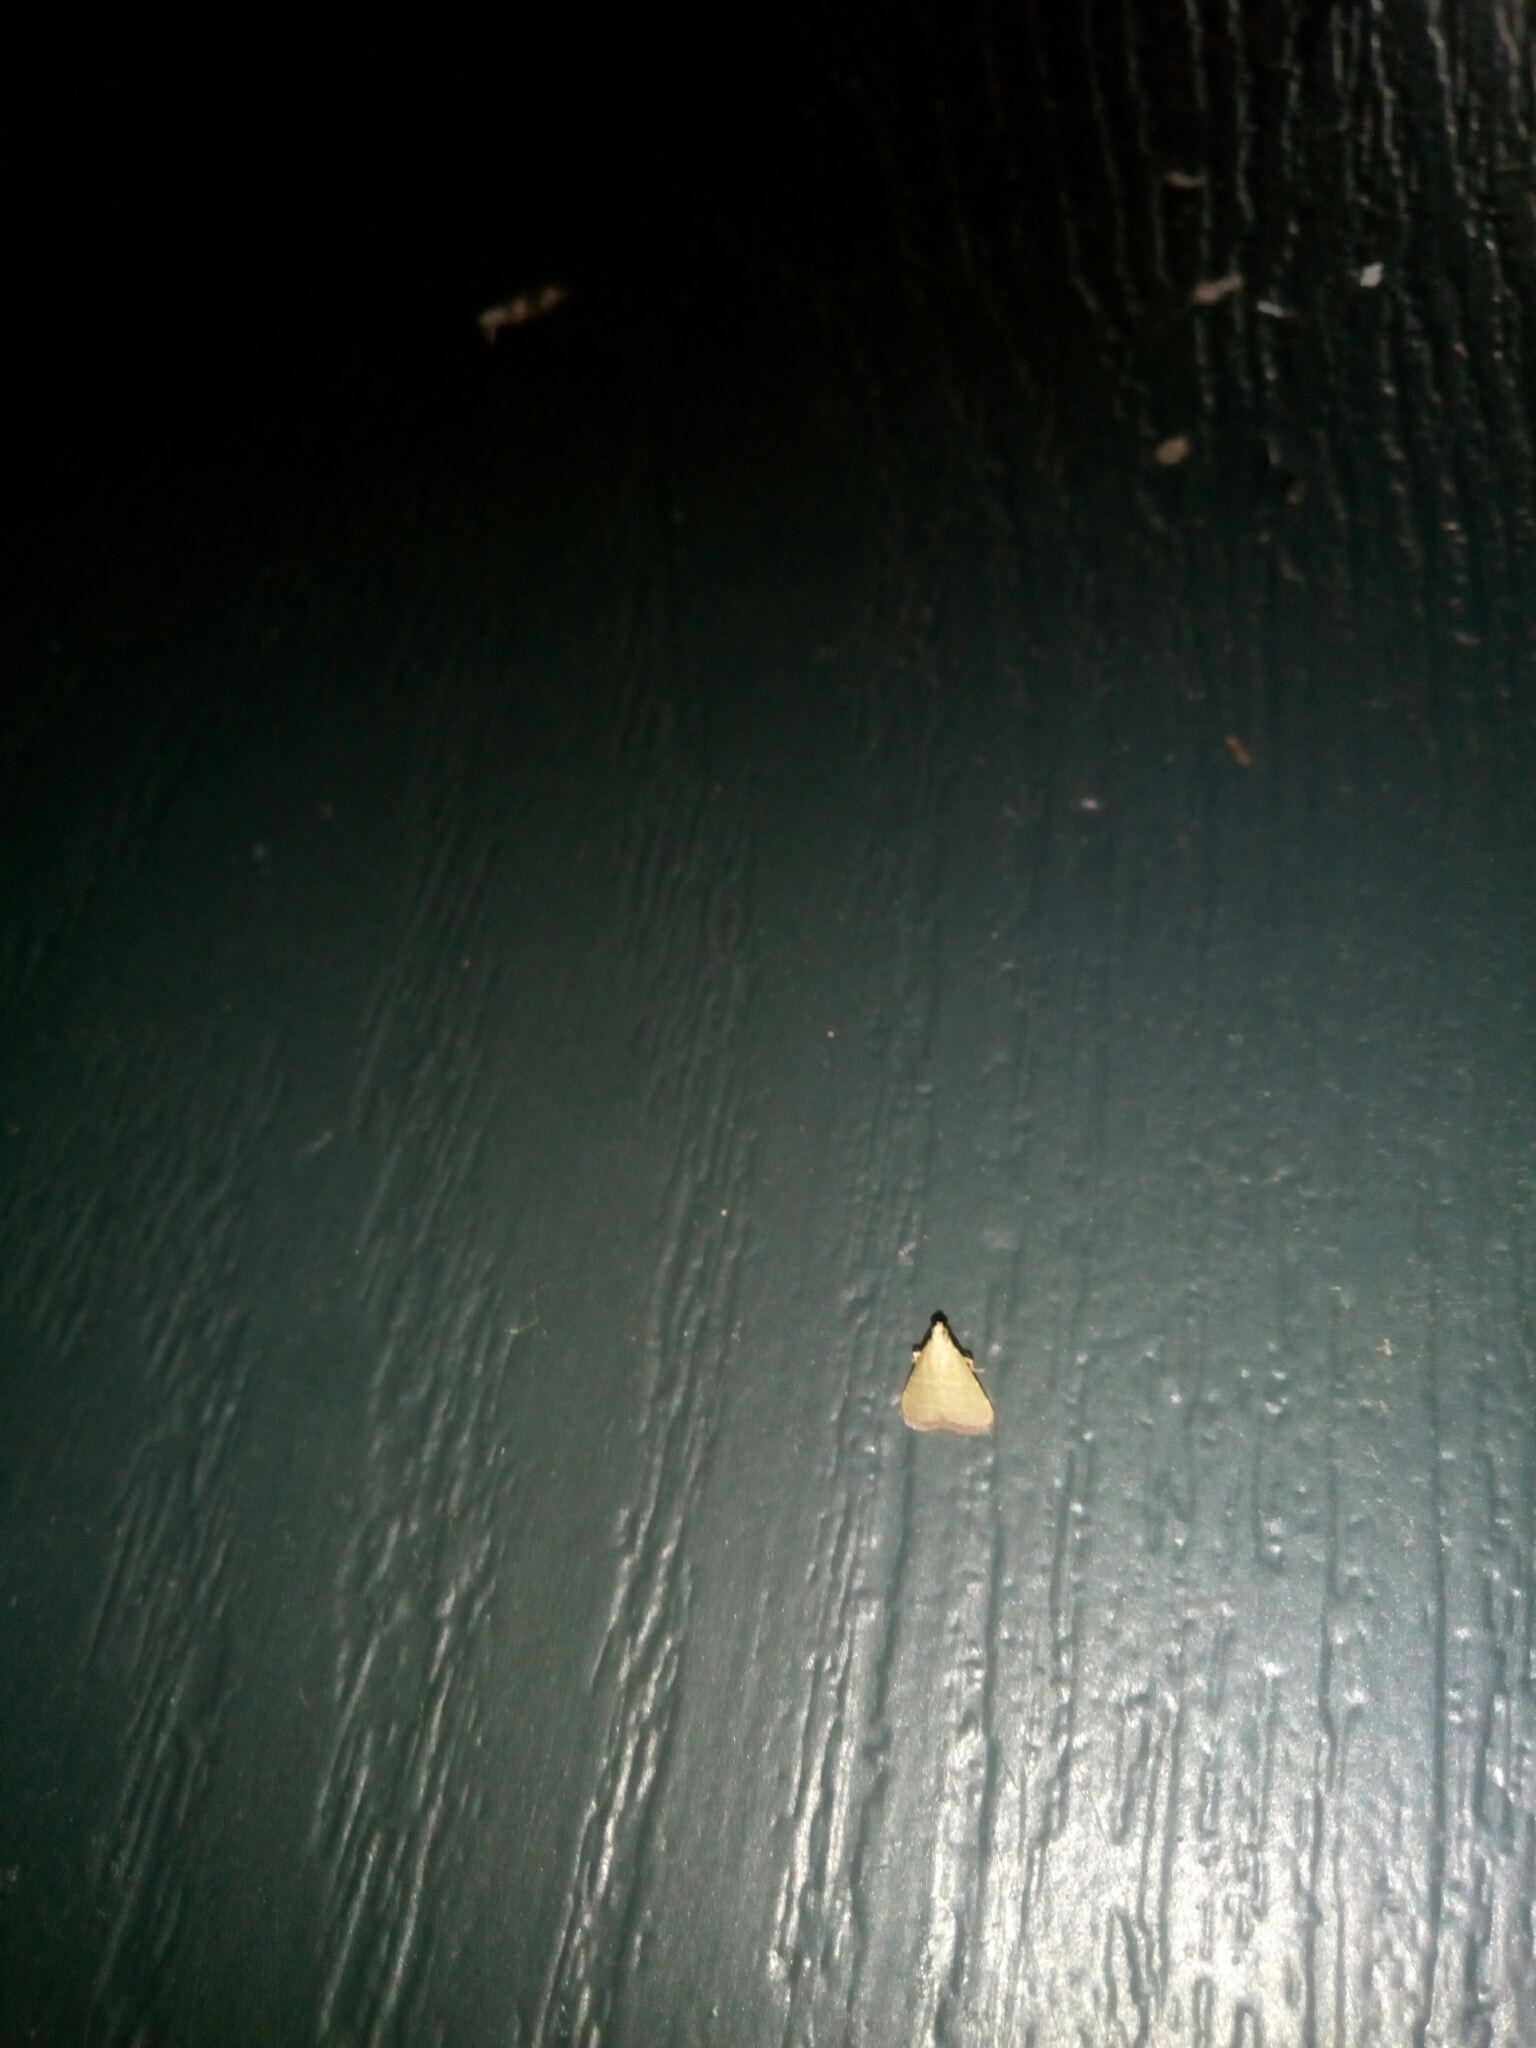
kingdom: Animalia
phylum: Arthropoda
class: Insecta
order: Lepidoptera
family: Pyralidae
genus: Arta
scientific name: Arta olivalis
